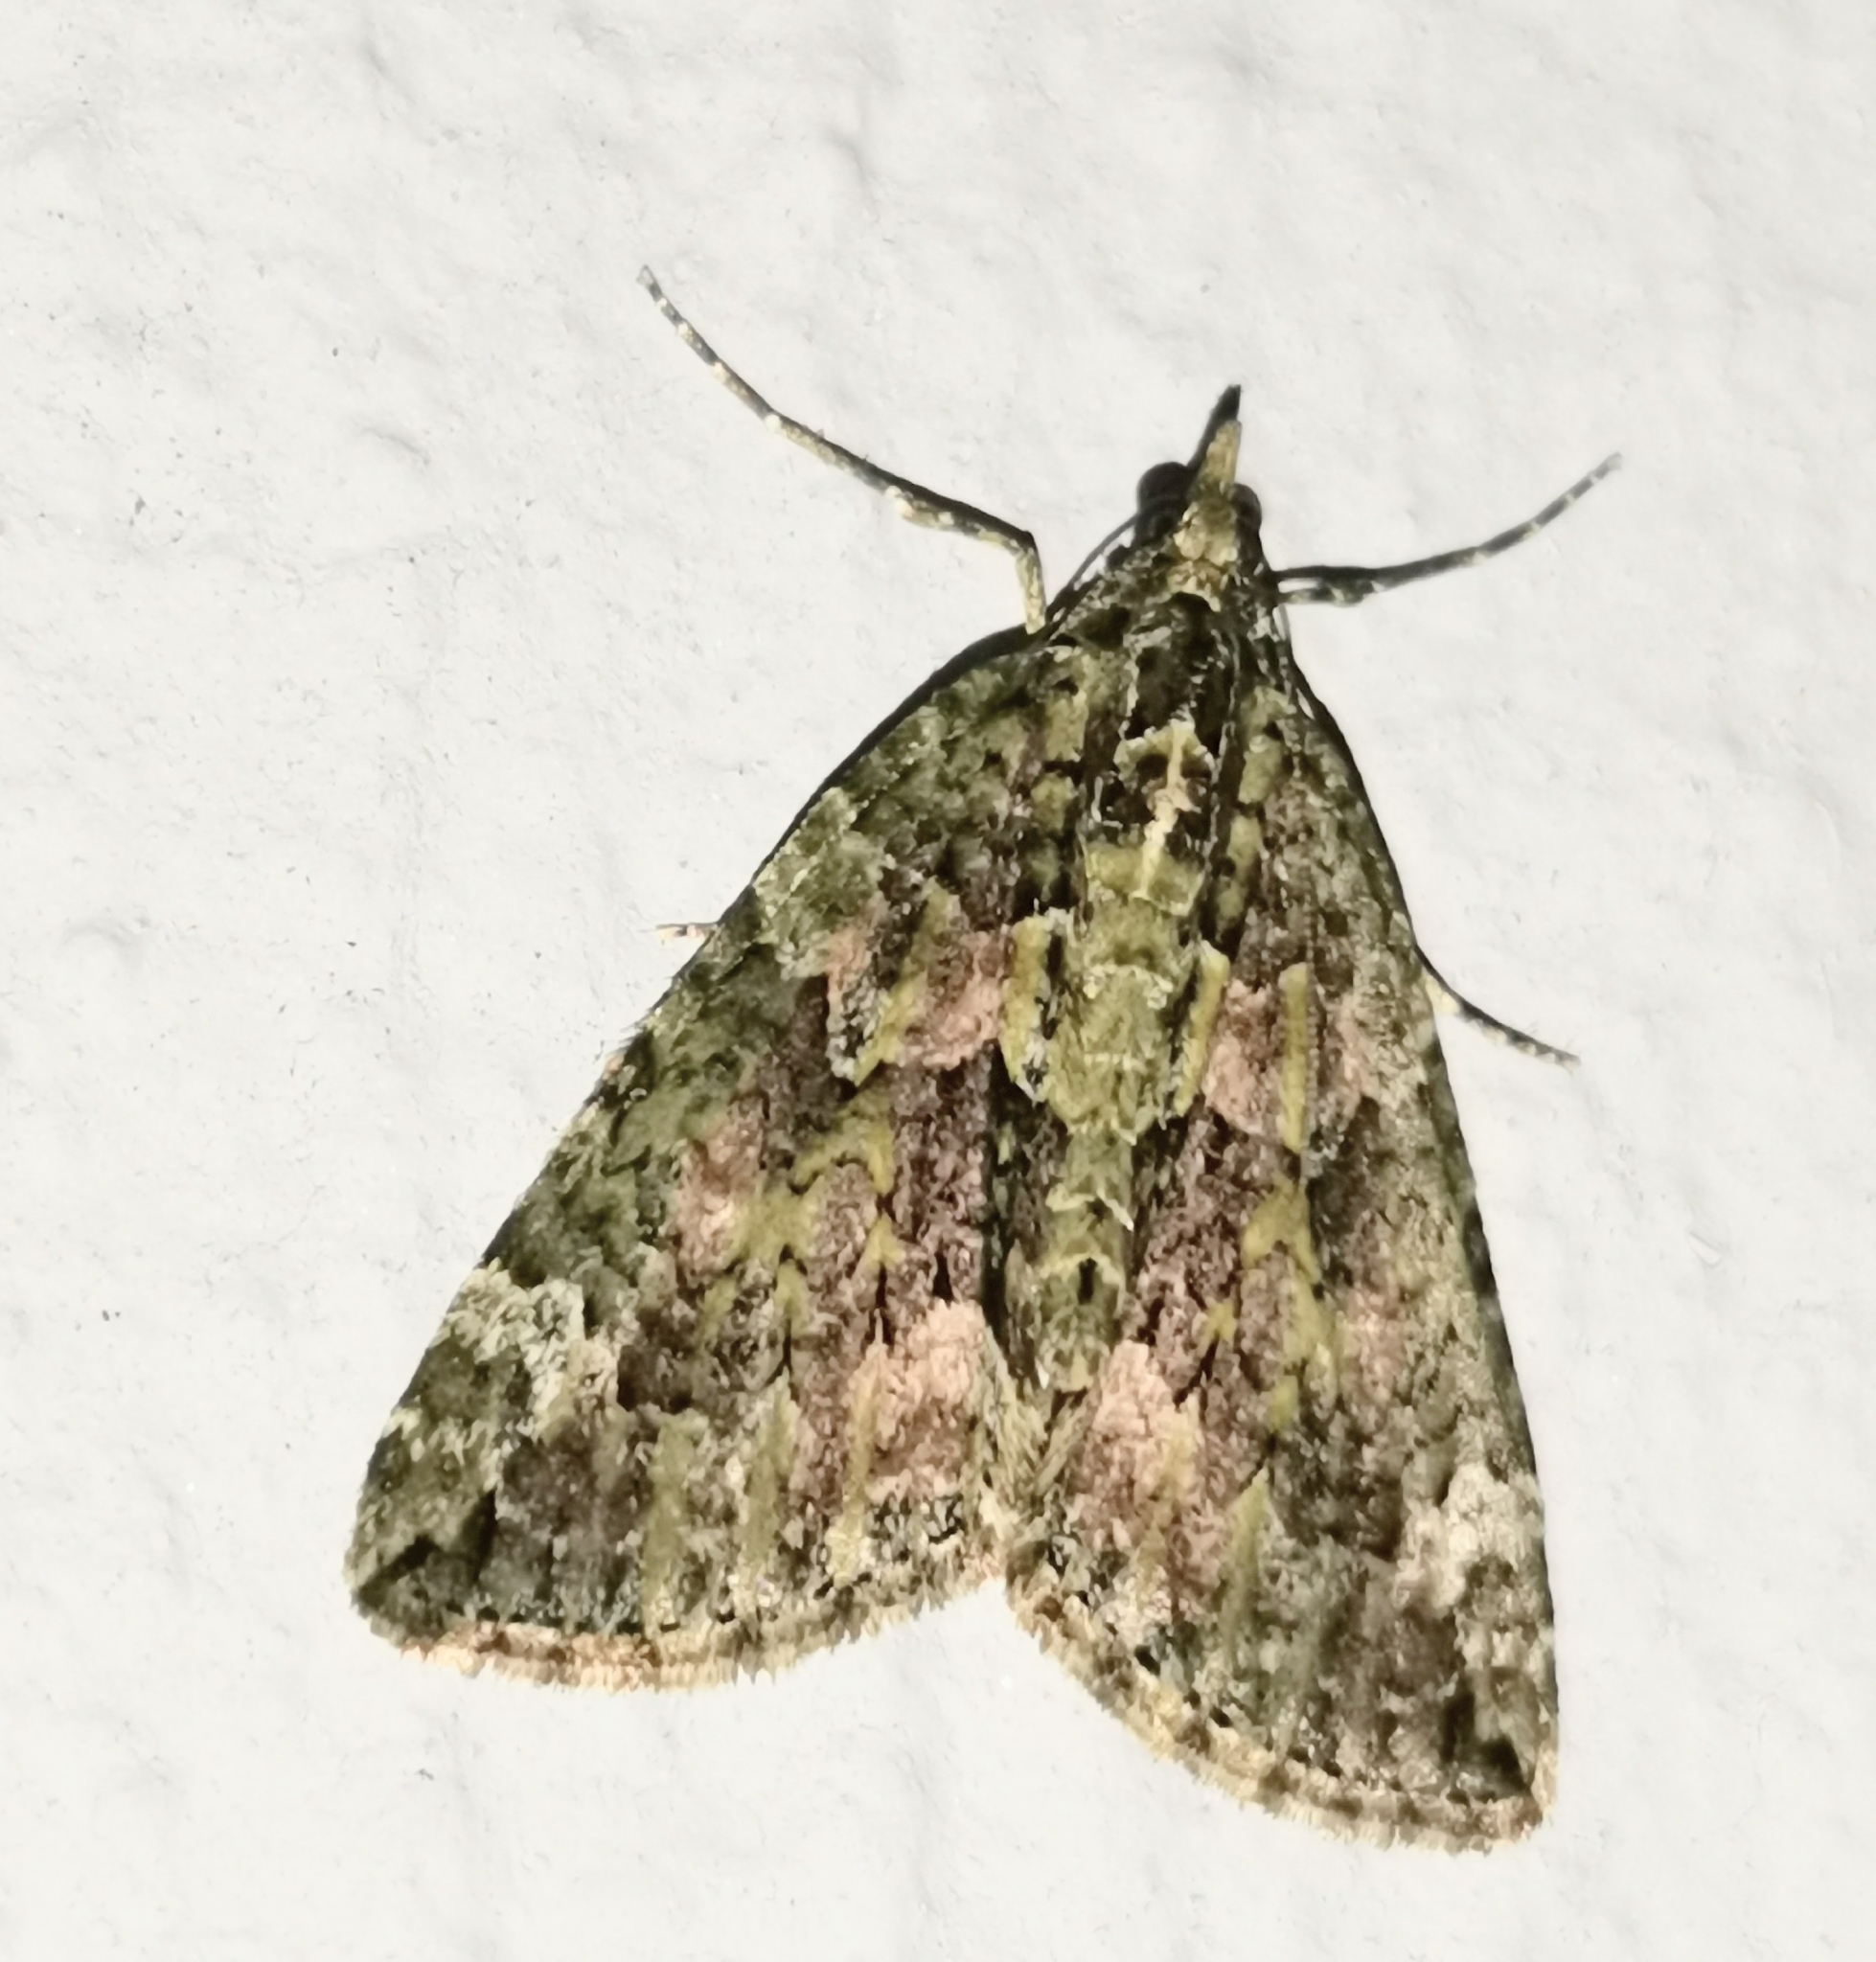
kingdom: Animalia
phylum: Arthropoda
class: Insecta
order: Lepidoptera
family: Geometridae
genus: Chloroclysta
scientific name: Chloroclysta siterata
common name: Red-green carpet
